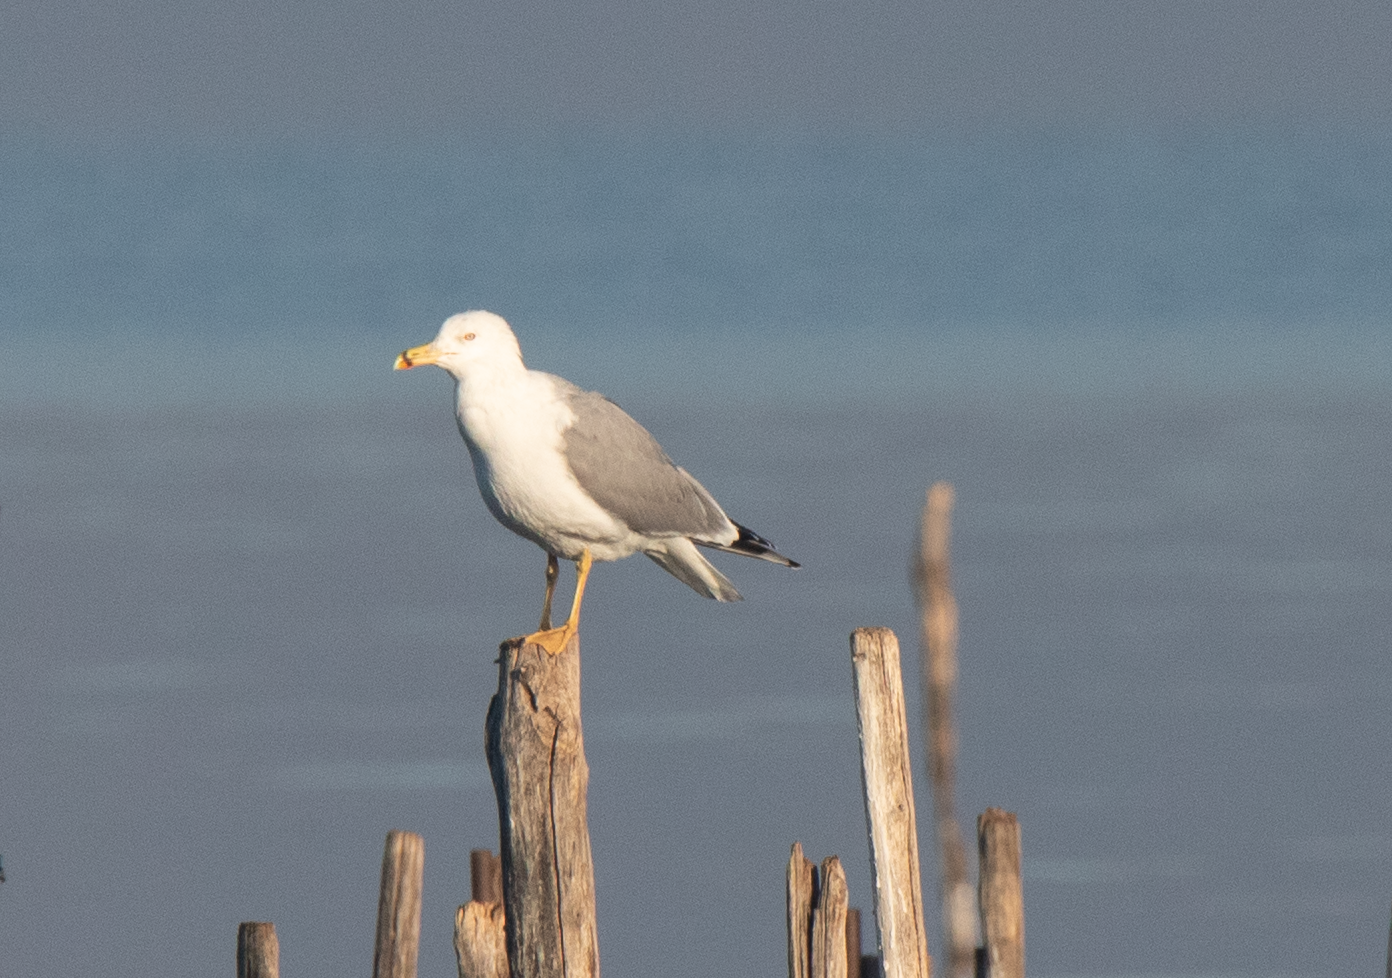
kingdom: Animalia
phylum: Chordata
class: Aves
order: Charadriiformes
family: Laridae
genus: Larus
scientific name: Larus michahellis
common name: Yellow-legged gull
